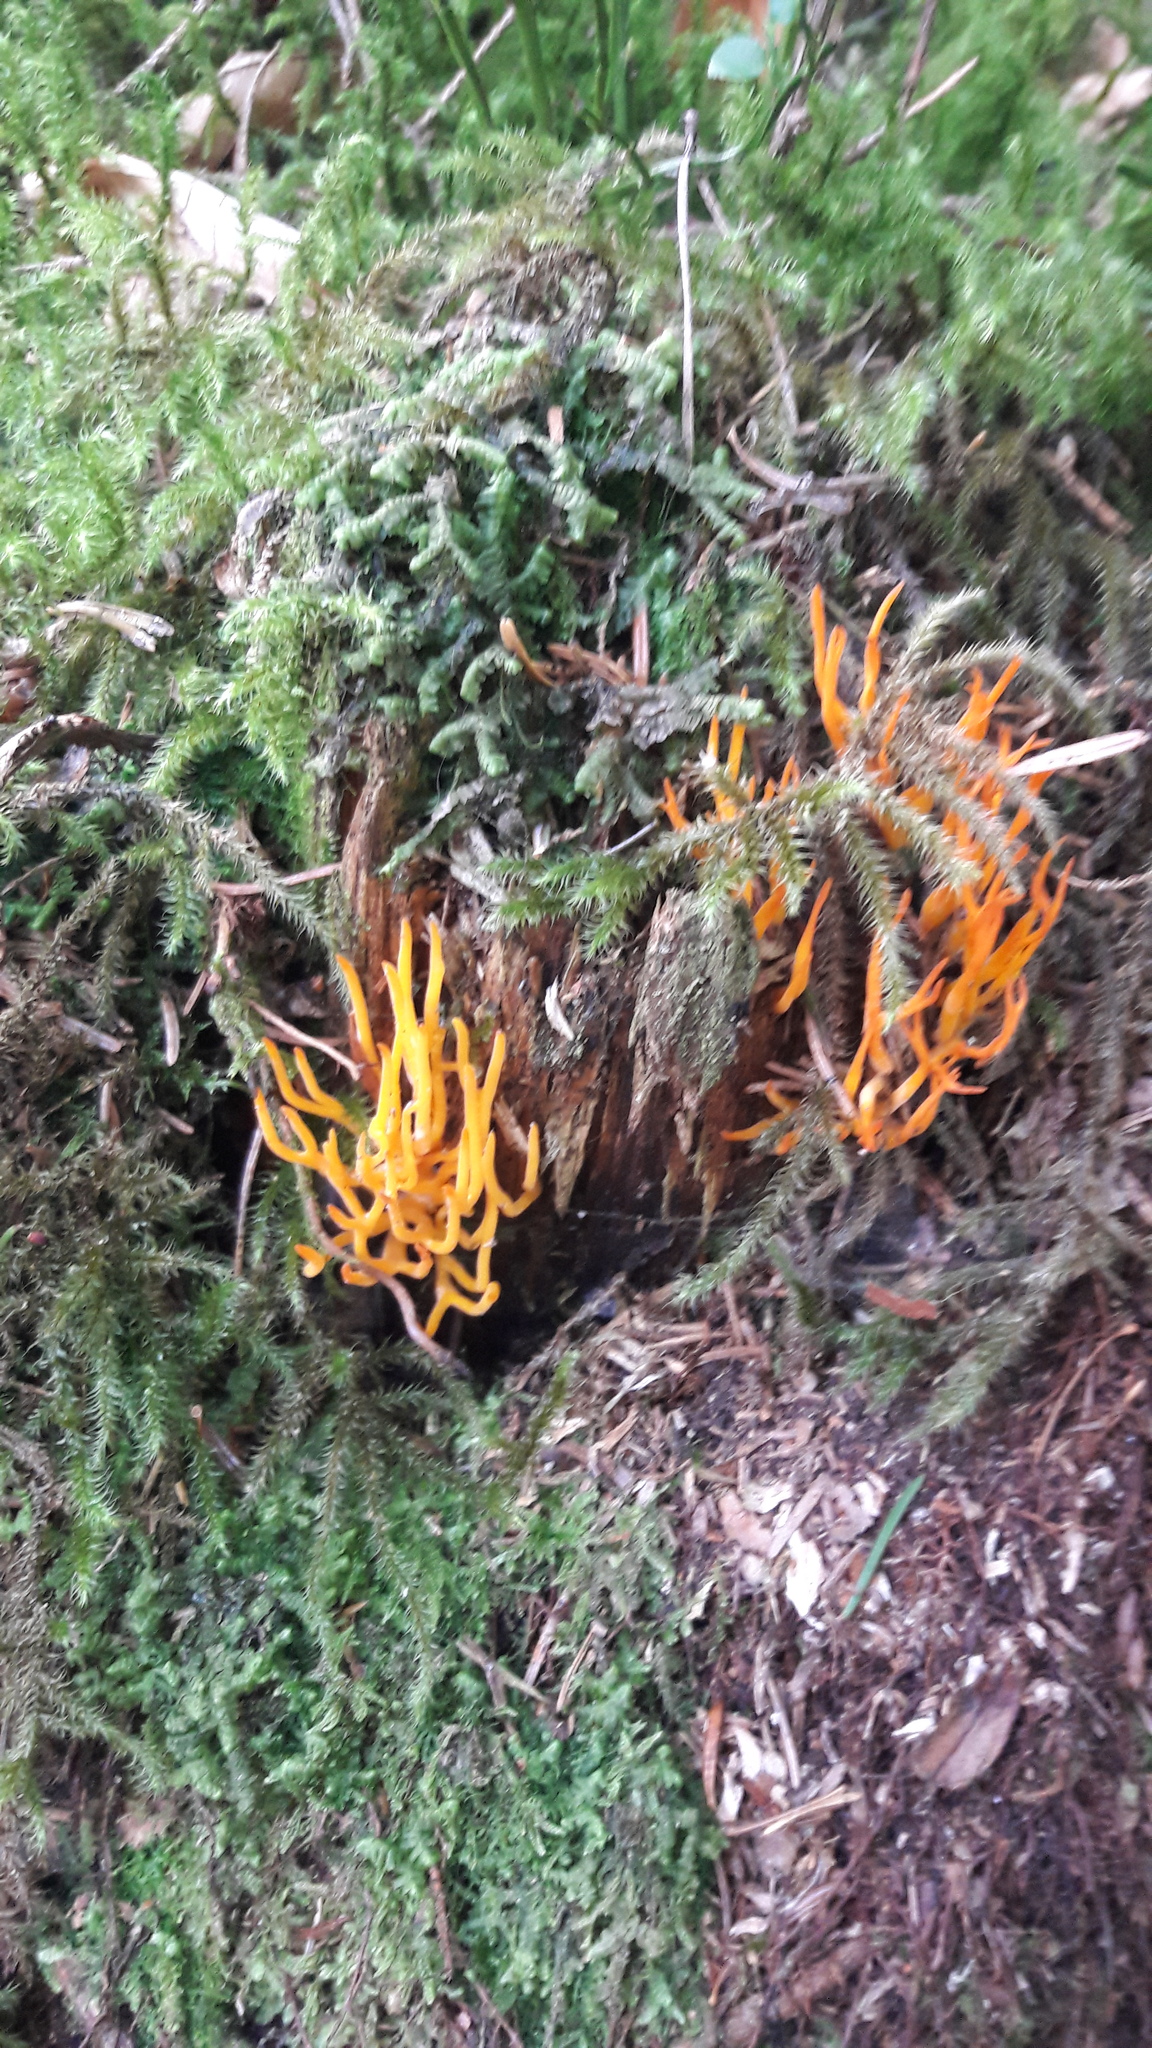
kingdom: Fungi
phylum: Basidiomycota
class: Dacrymycetes
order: Dacrymycetales
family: Dacrymycetaceae
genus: Calocera
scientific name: Calocera viscosa
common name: Yellow stagshorn
